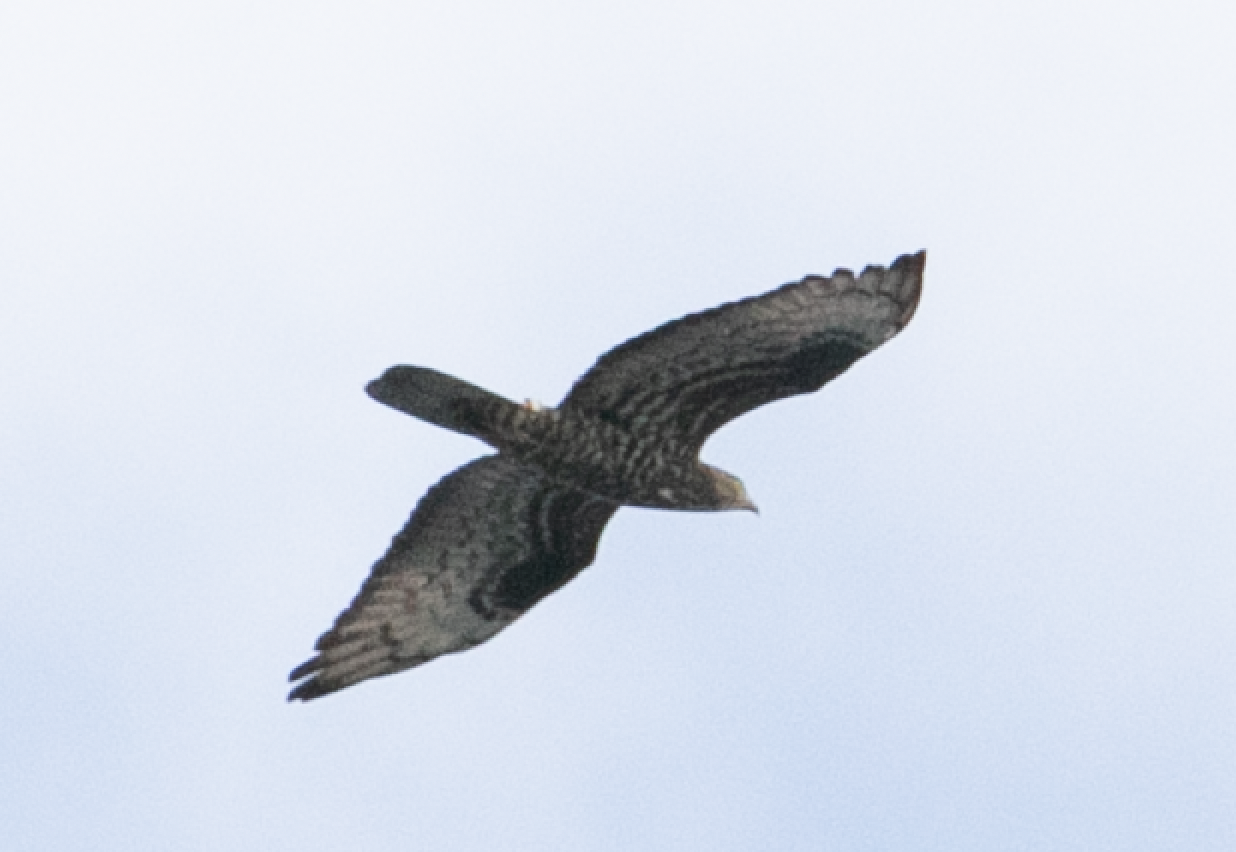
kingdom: Animalia
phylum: Chordata
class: Aves
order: Accipitriformes
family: Accipitridae
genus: Pernis
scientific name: Pernis apivorus
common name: European honey buzzard
